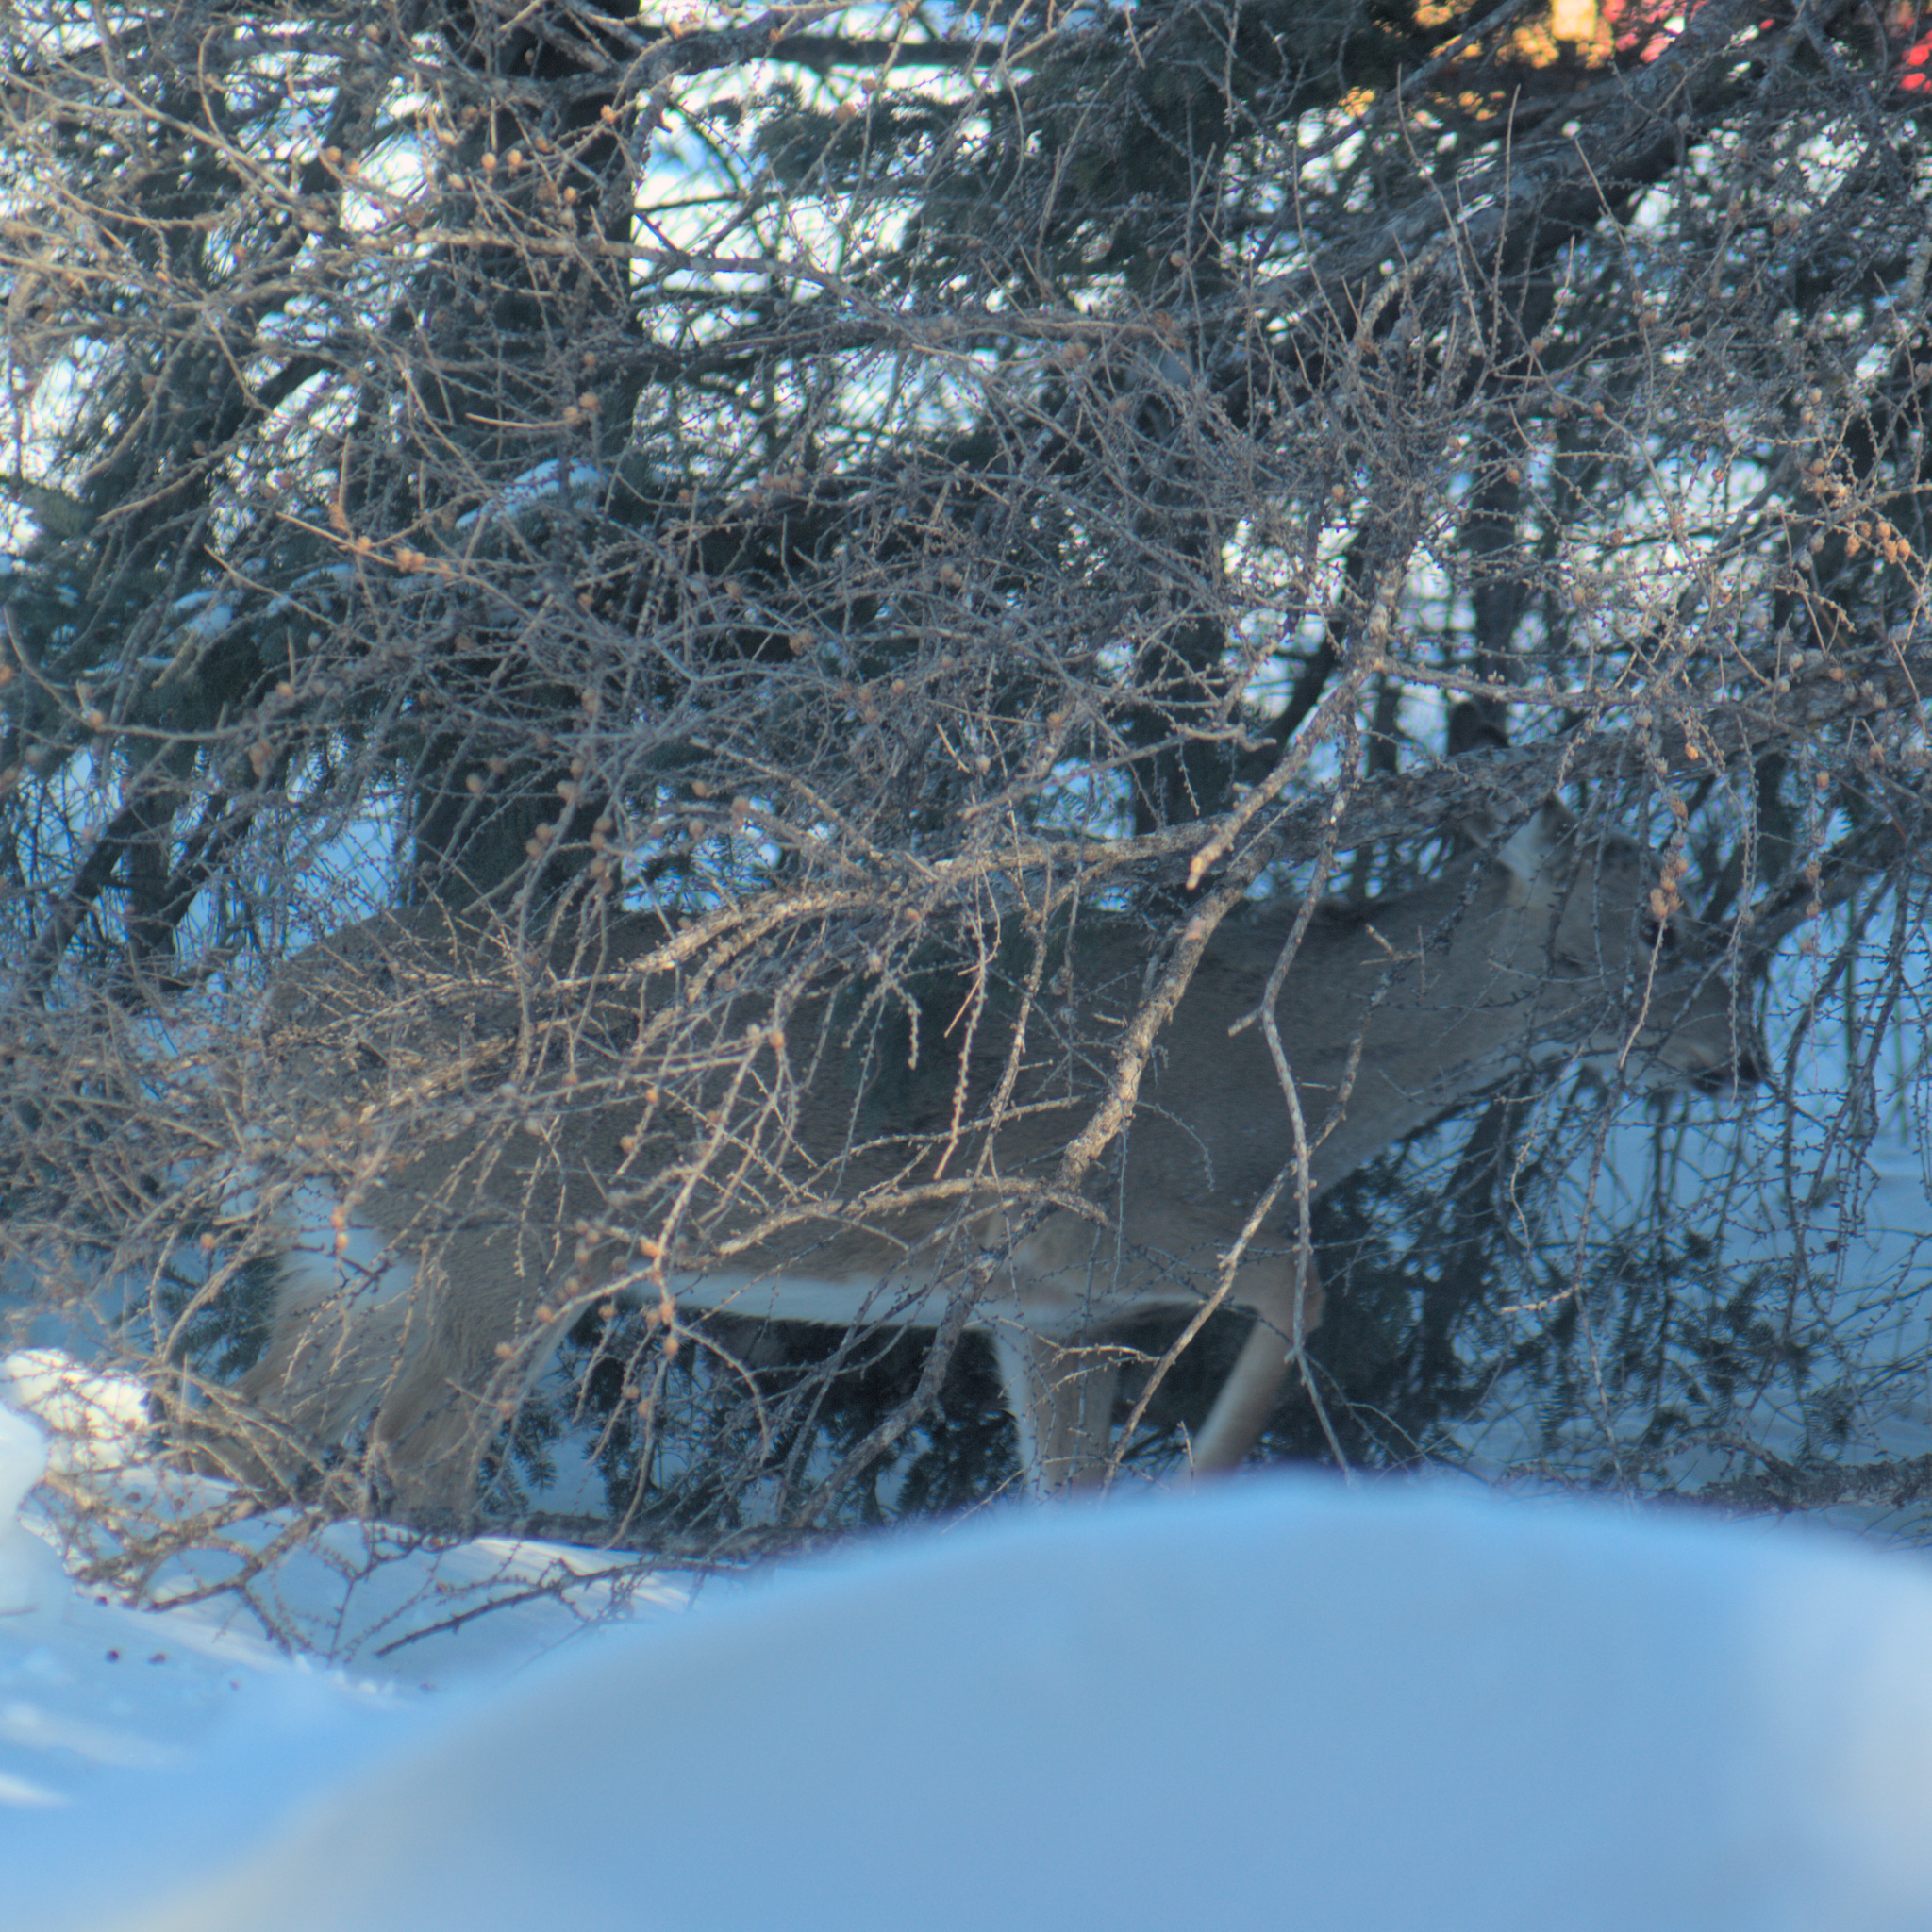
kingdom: Animalia
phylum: Chordata
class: Mammalia
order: Artiodactyla
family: Cervidae
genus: Odocoileus
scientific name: Odocoileus virginianus
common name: White-tailed deer
